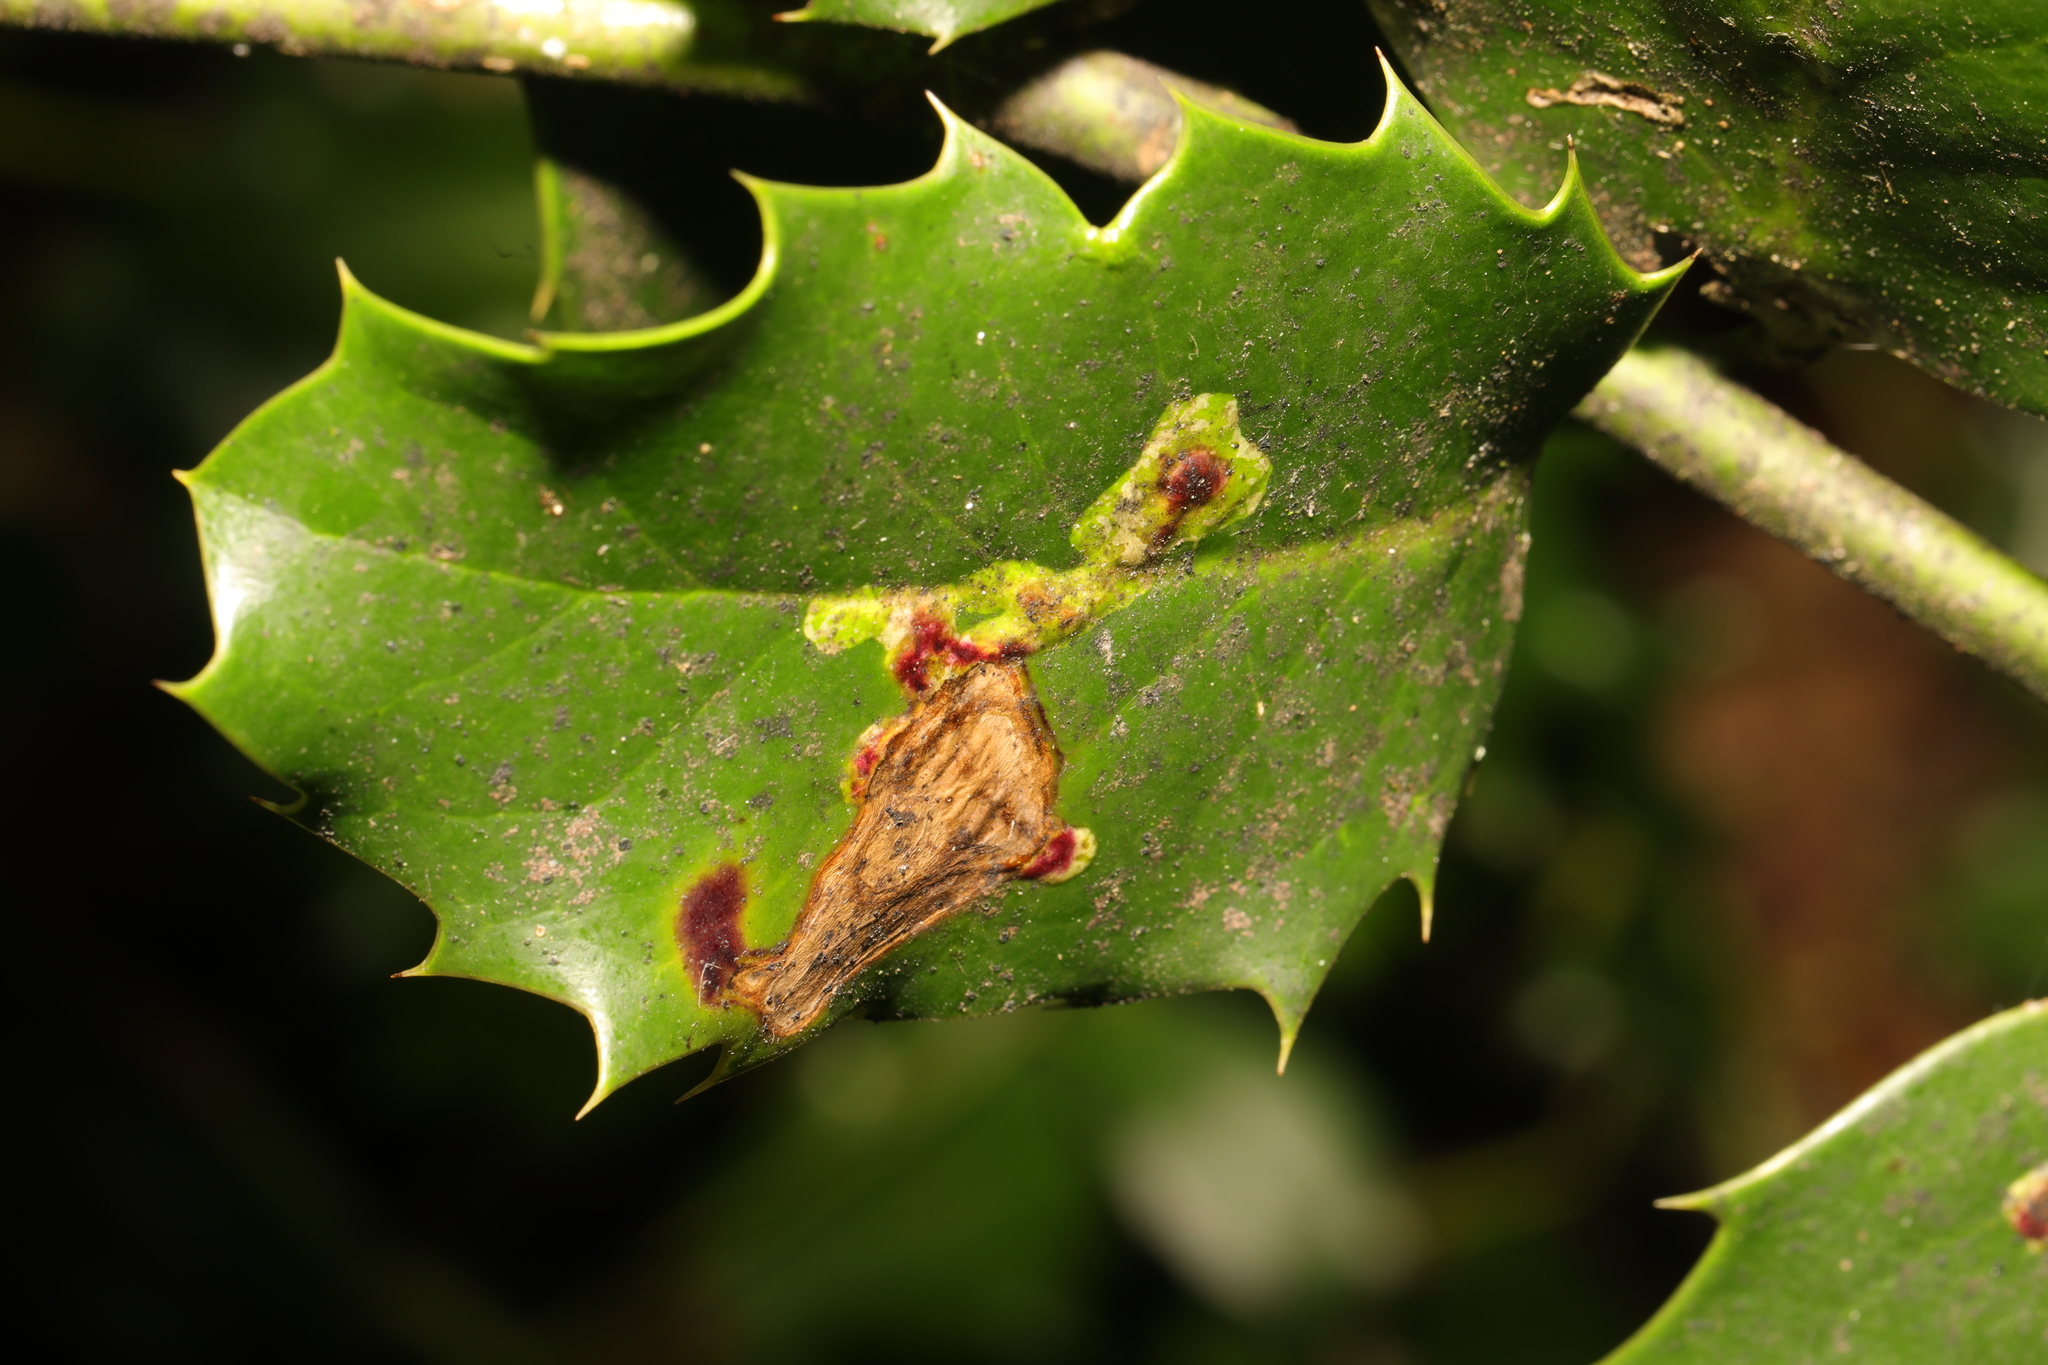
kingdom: Animalia
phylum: Arthropoda
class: Insecta
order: Diptera
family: Agromyzidae
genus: Phytomyza
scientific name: Phytomyza ilicis
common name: Holly leafminer
